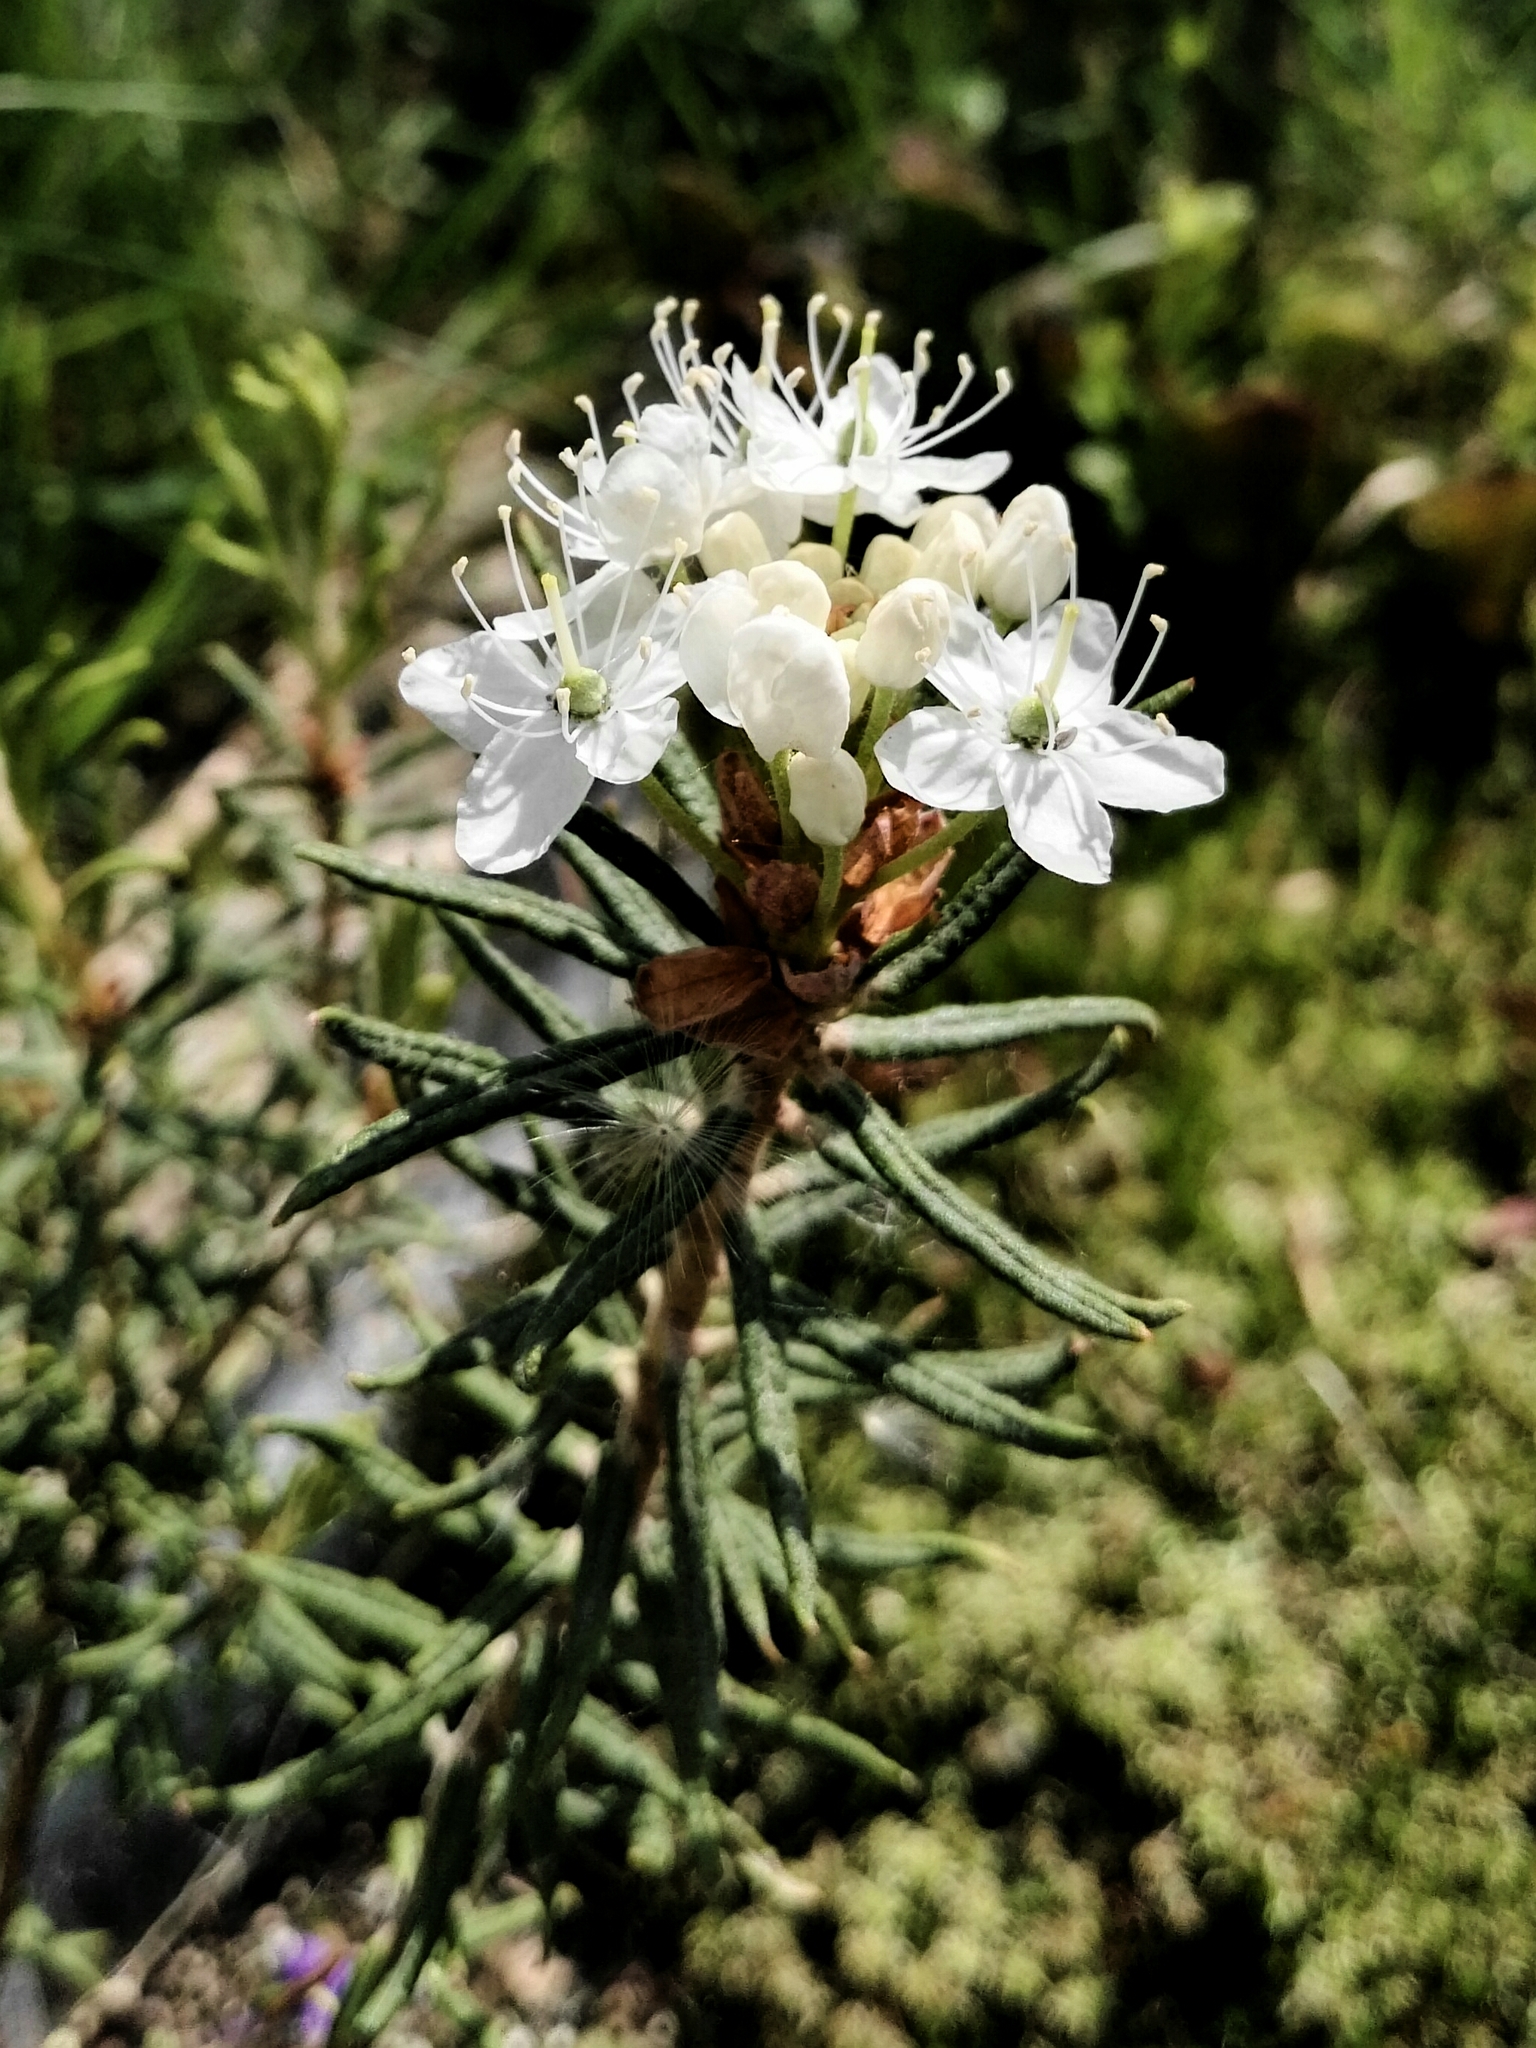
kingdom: Plantae
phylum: Tracheophyta
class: Magnoliopsida
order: Ericales
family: Ericaceae
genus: Rhododendron
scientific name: Rhododendron tomentosum
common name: Marsh labrador tea
